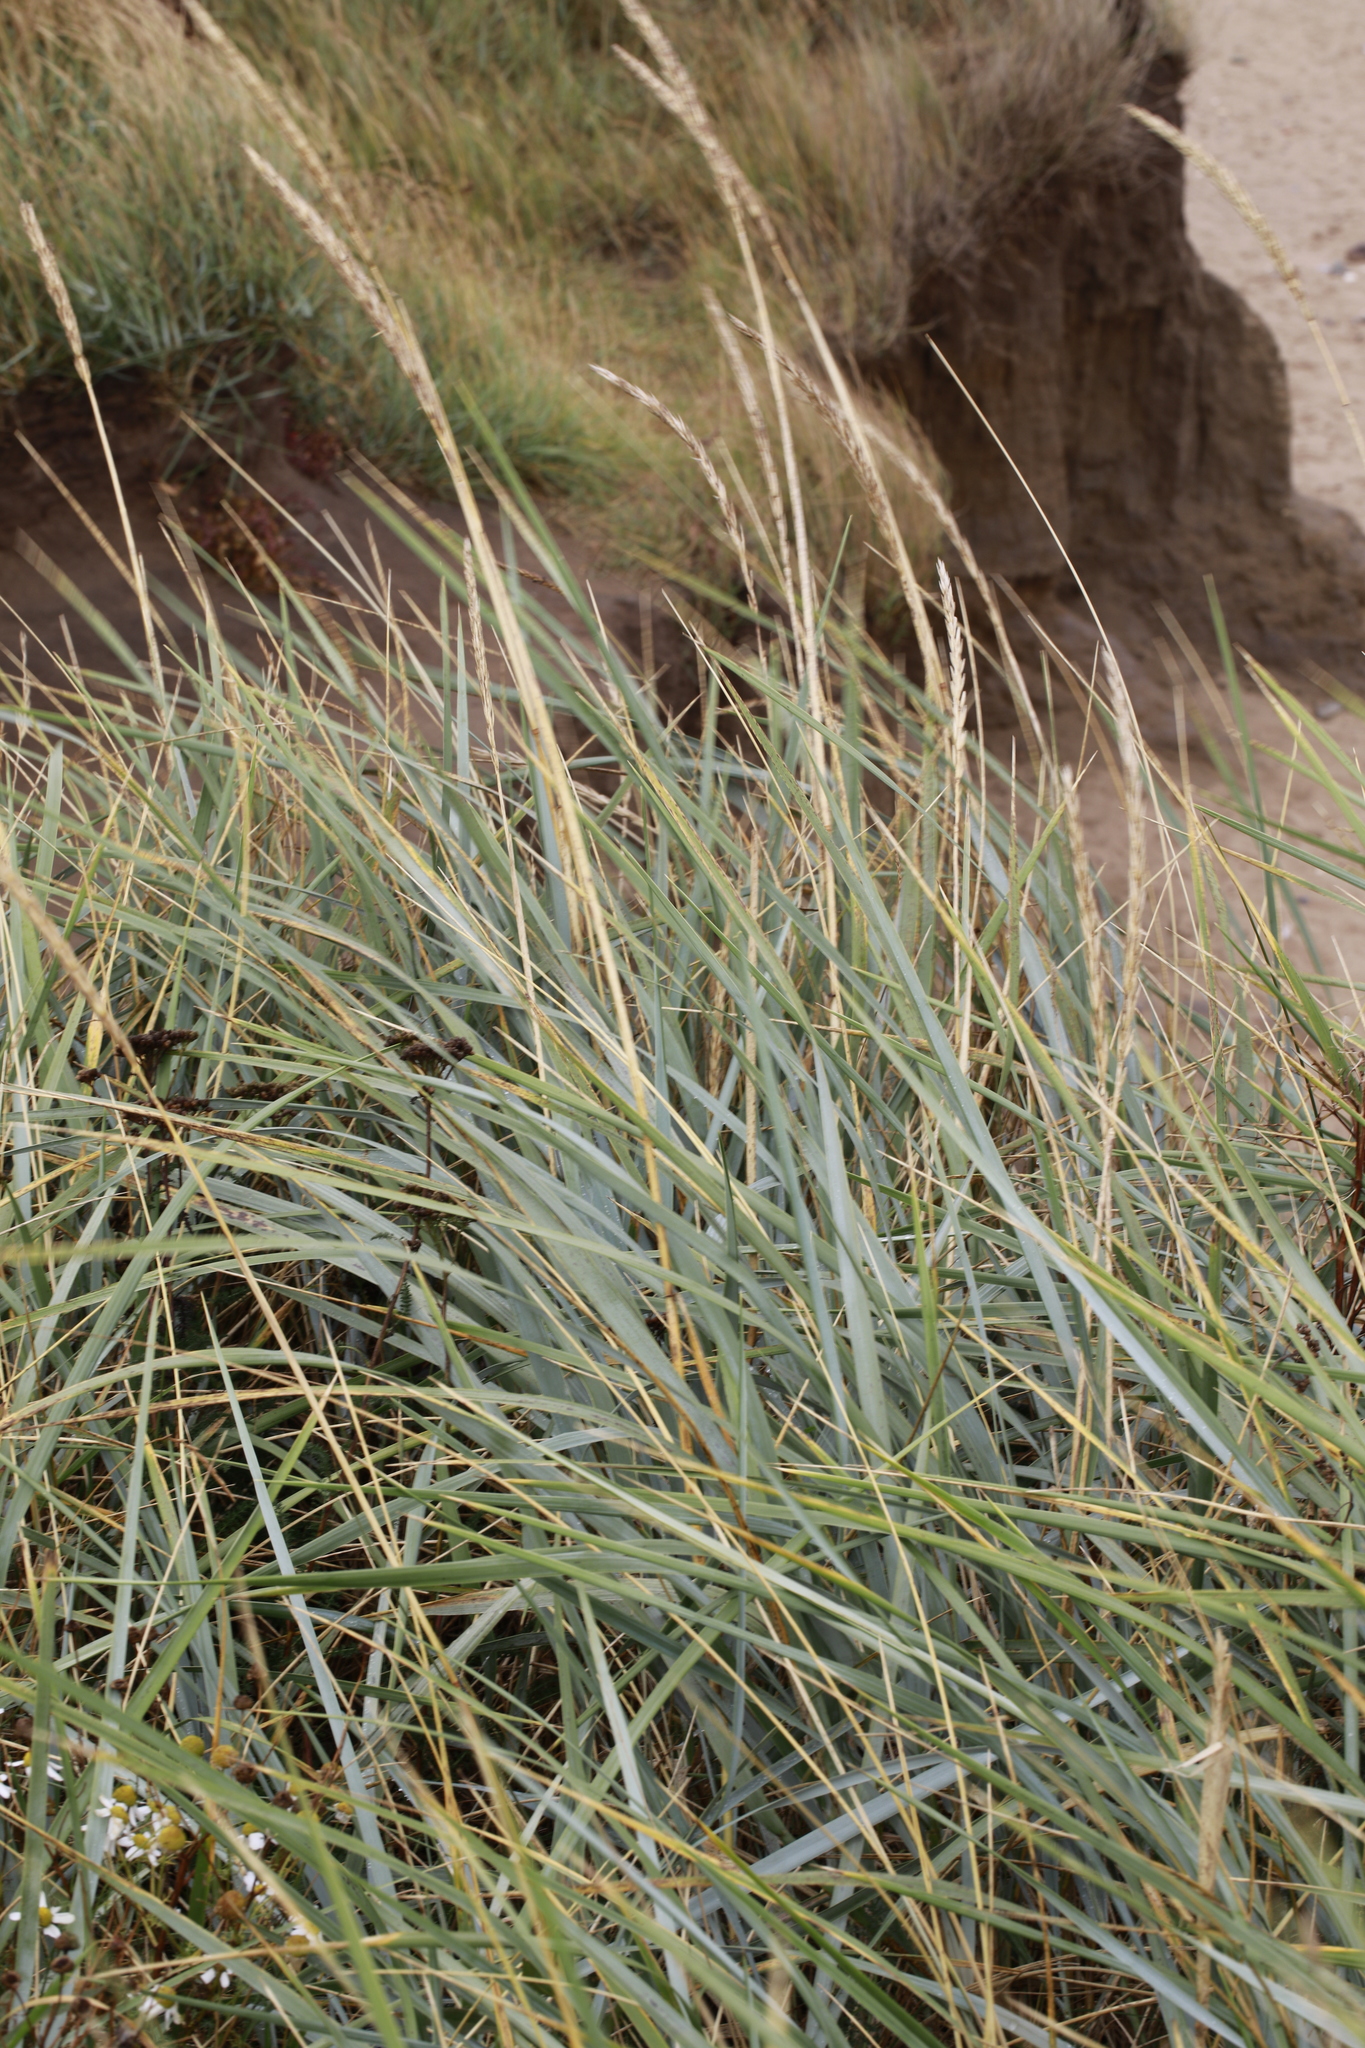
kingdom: Plantae
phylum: Tracheophyta
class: Liliopsida
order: Poales
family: Poaceae
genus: Leymus
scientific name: Leymus arenarius
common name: Lyme-grass
